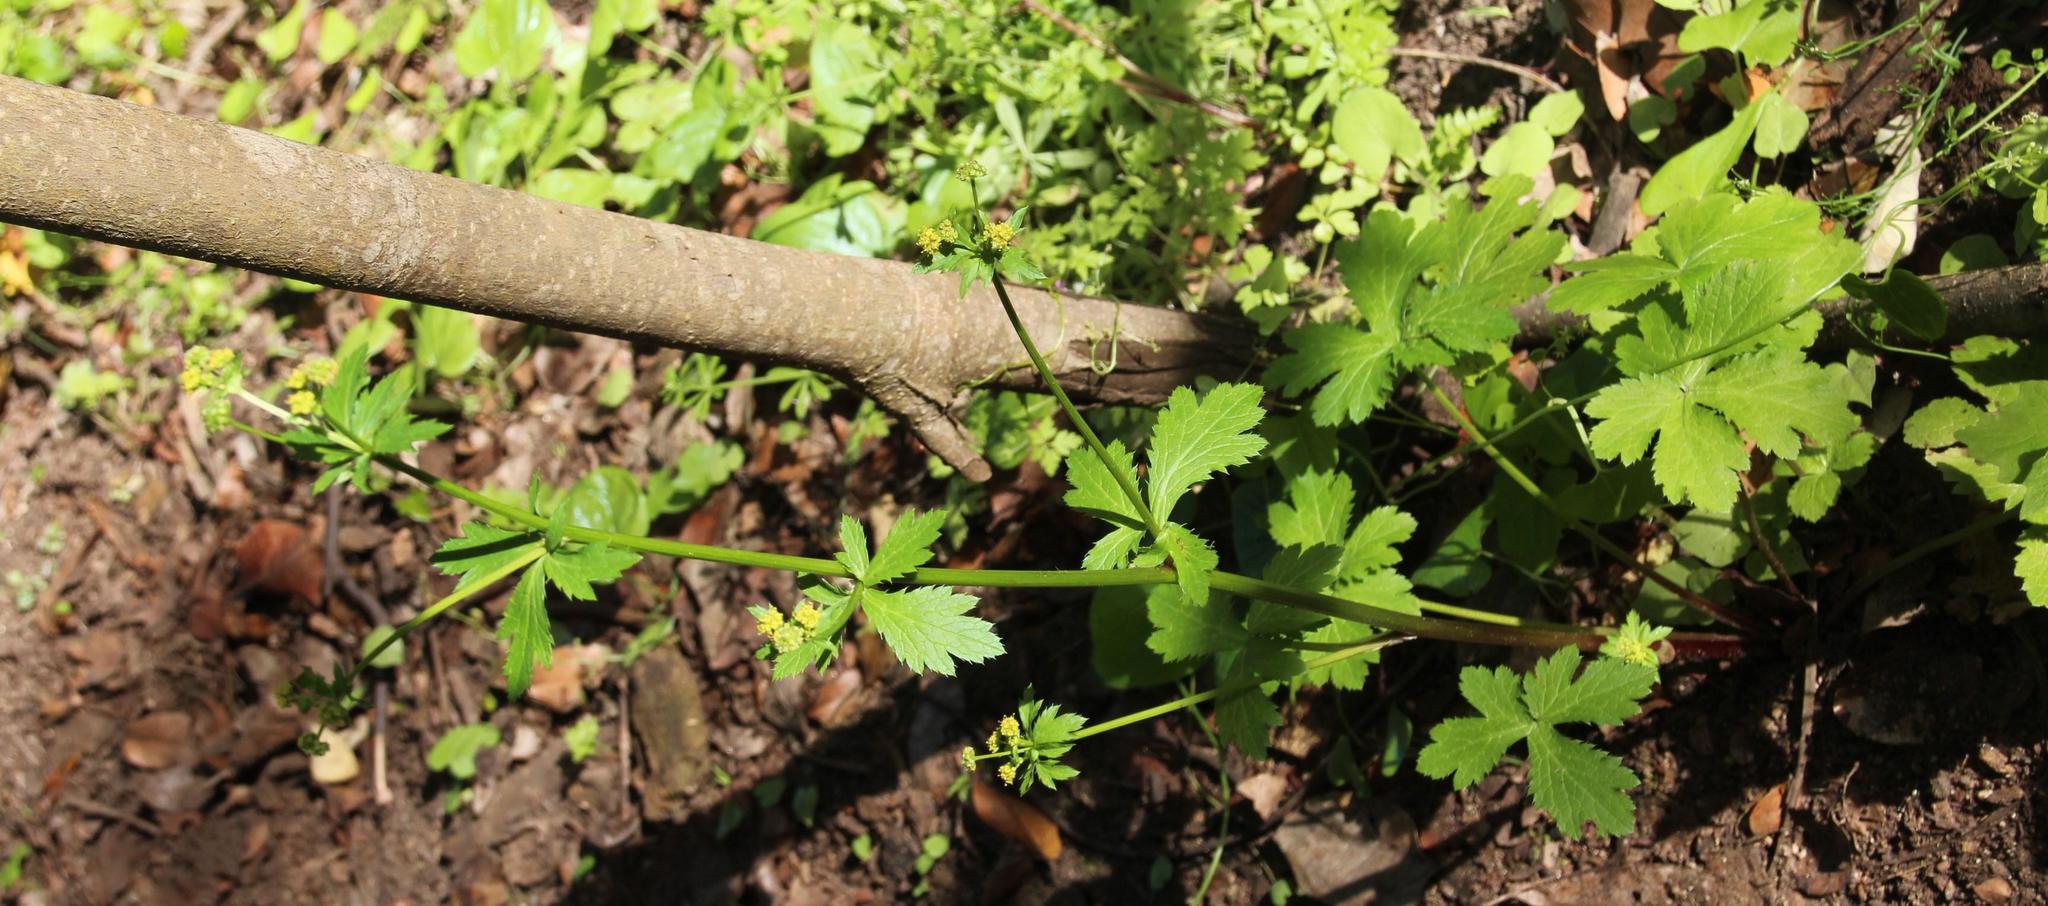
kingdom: Plantae
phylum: Tracheophyta
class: Magnoliopsida
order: Apiales
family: Apiaceae
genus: Sanicula
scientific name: Sanicula graveolens
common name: Sierra sanicle
